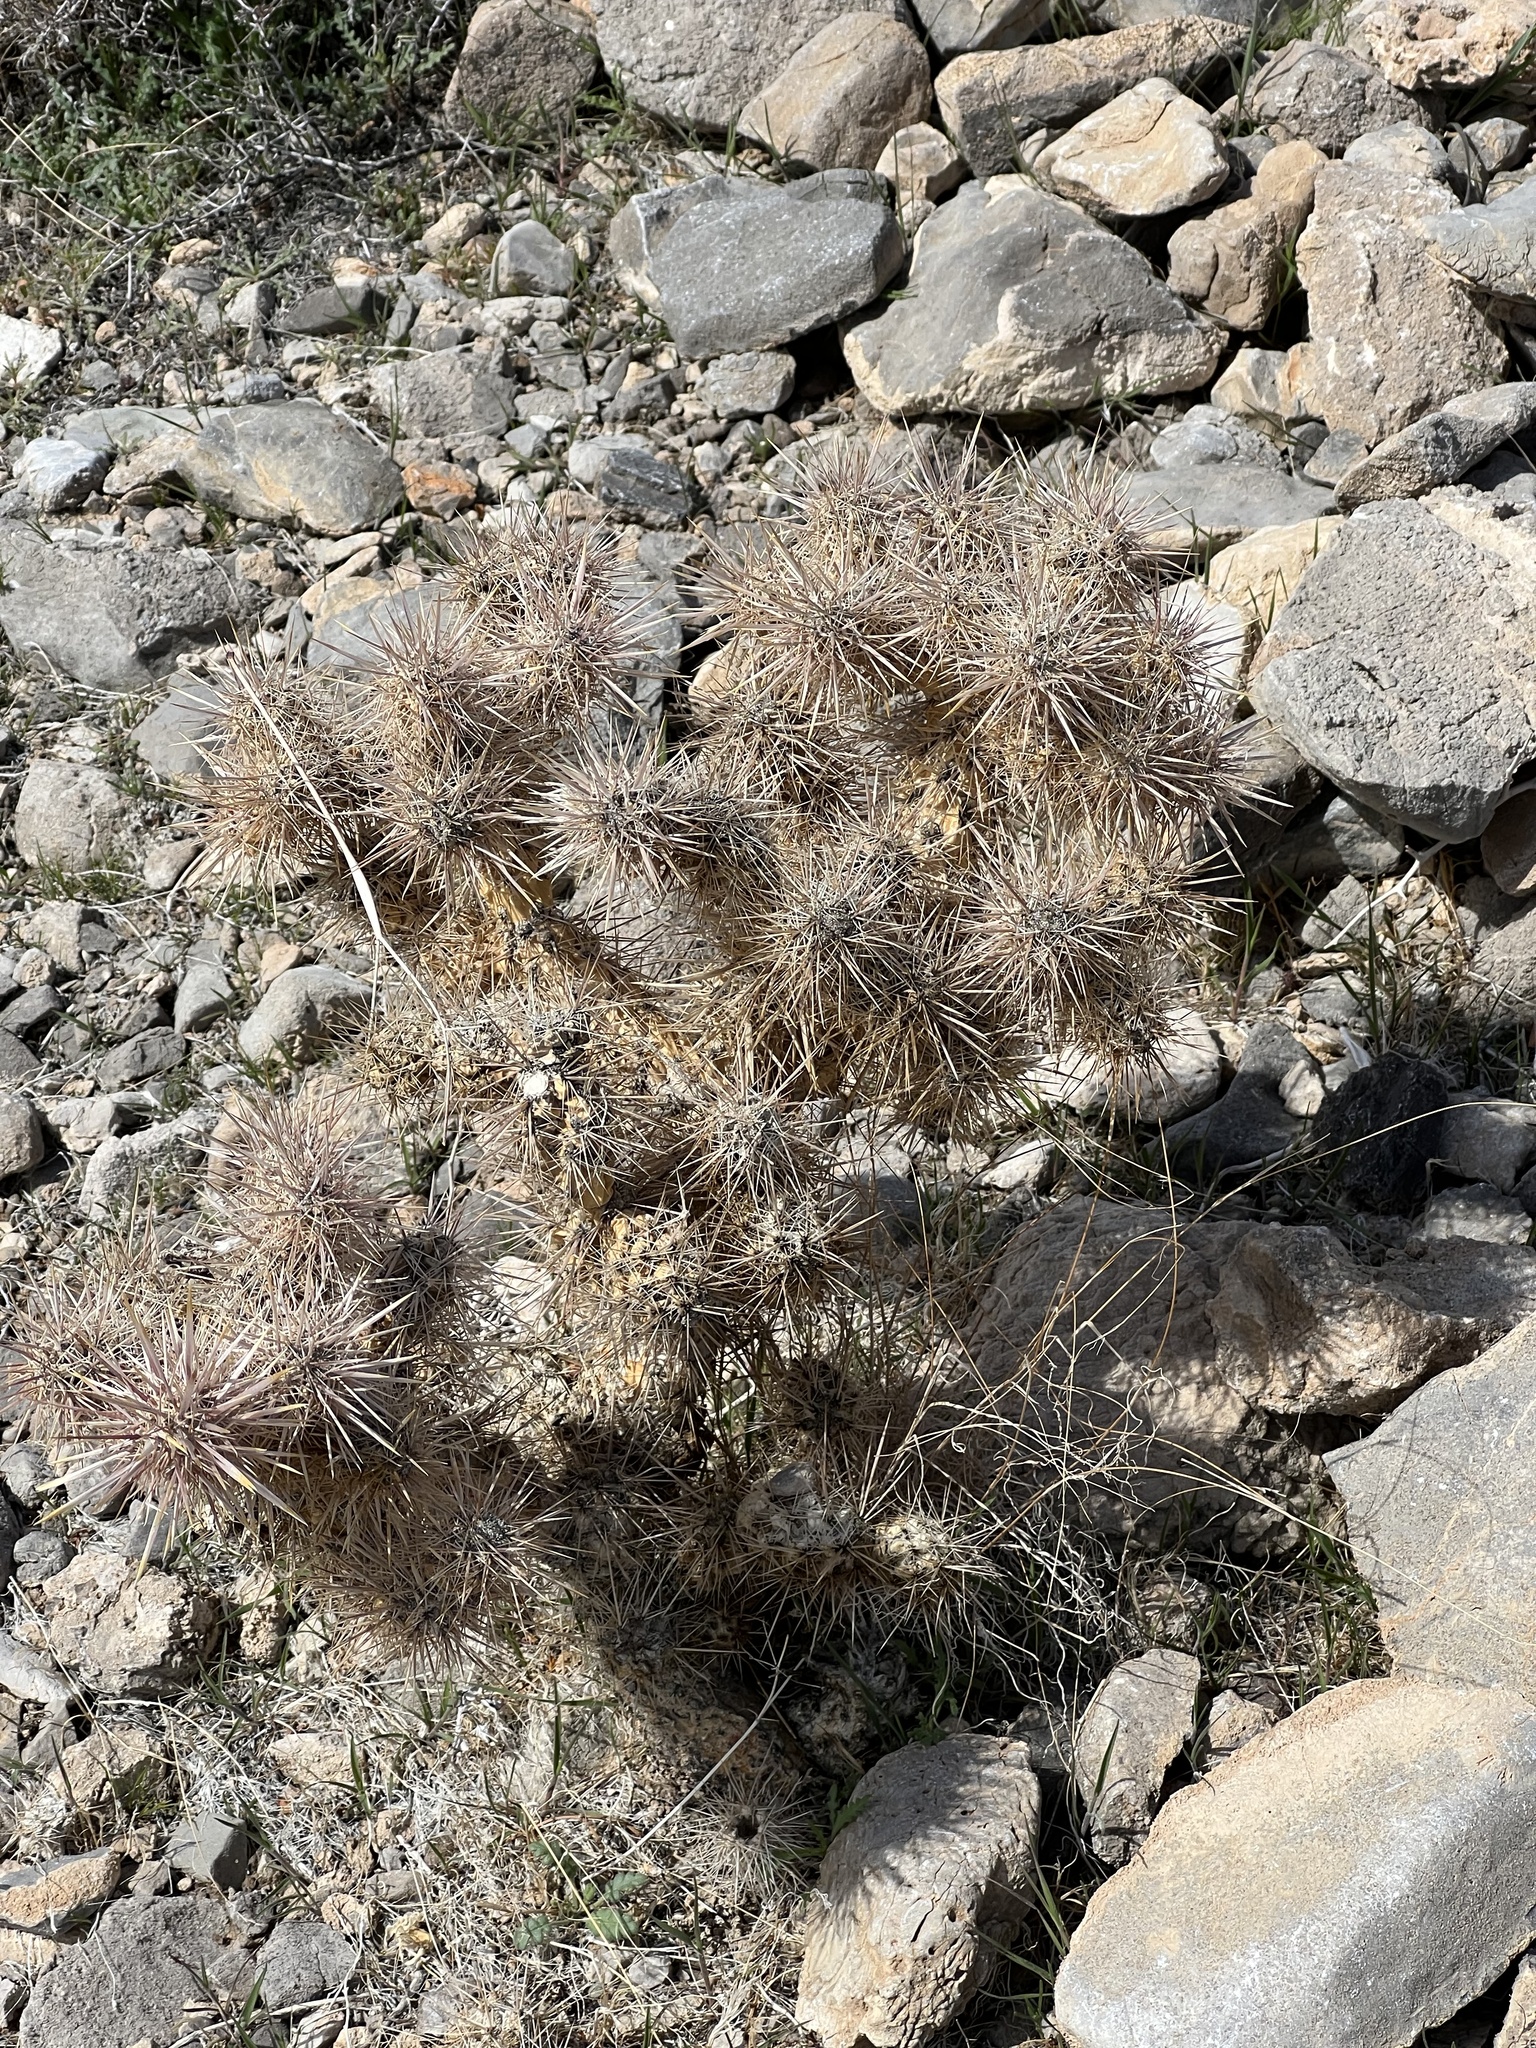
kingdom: Plantae
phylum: Tracheophyta
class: Magnoliopsida
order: Caryophyllales
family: Cactaceae
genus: Cylindropuntia
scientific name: Cylindropuntia echinocarpa
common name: Ground cholla
